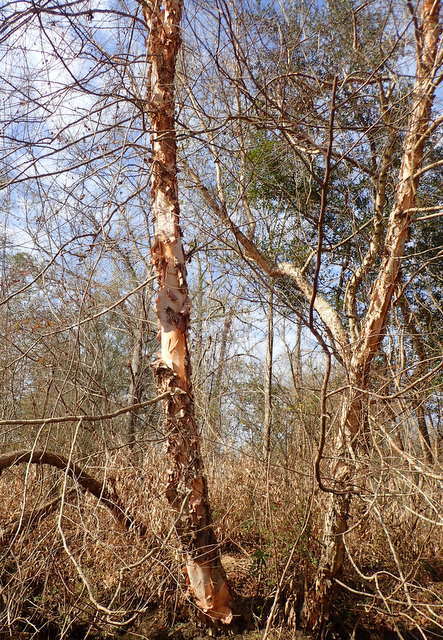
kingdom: Plantae
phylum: Tracheophyta
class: Magnoliopsida
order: Fagales
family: Betulaceae
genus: Betula
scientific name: Betula nigra
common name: Black birch
